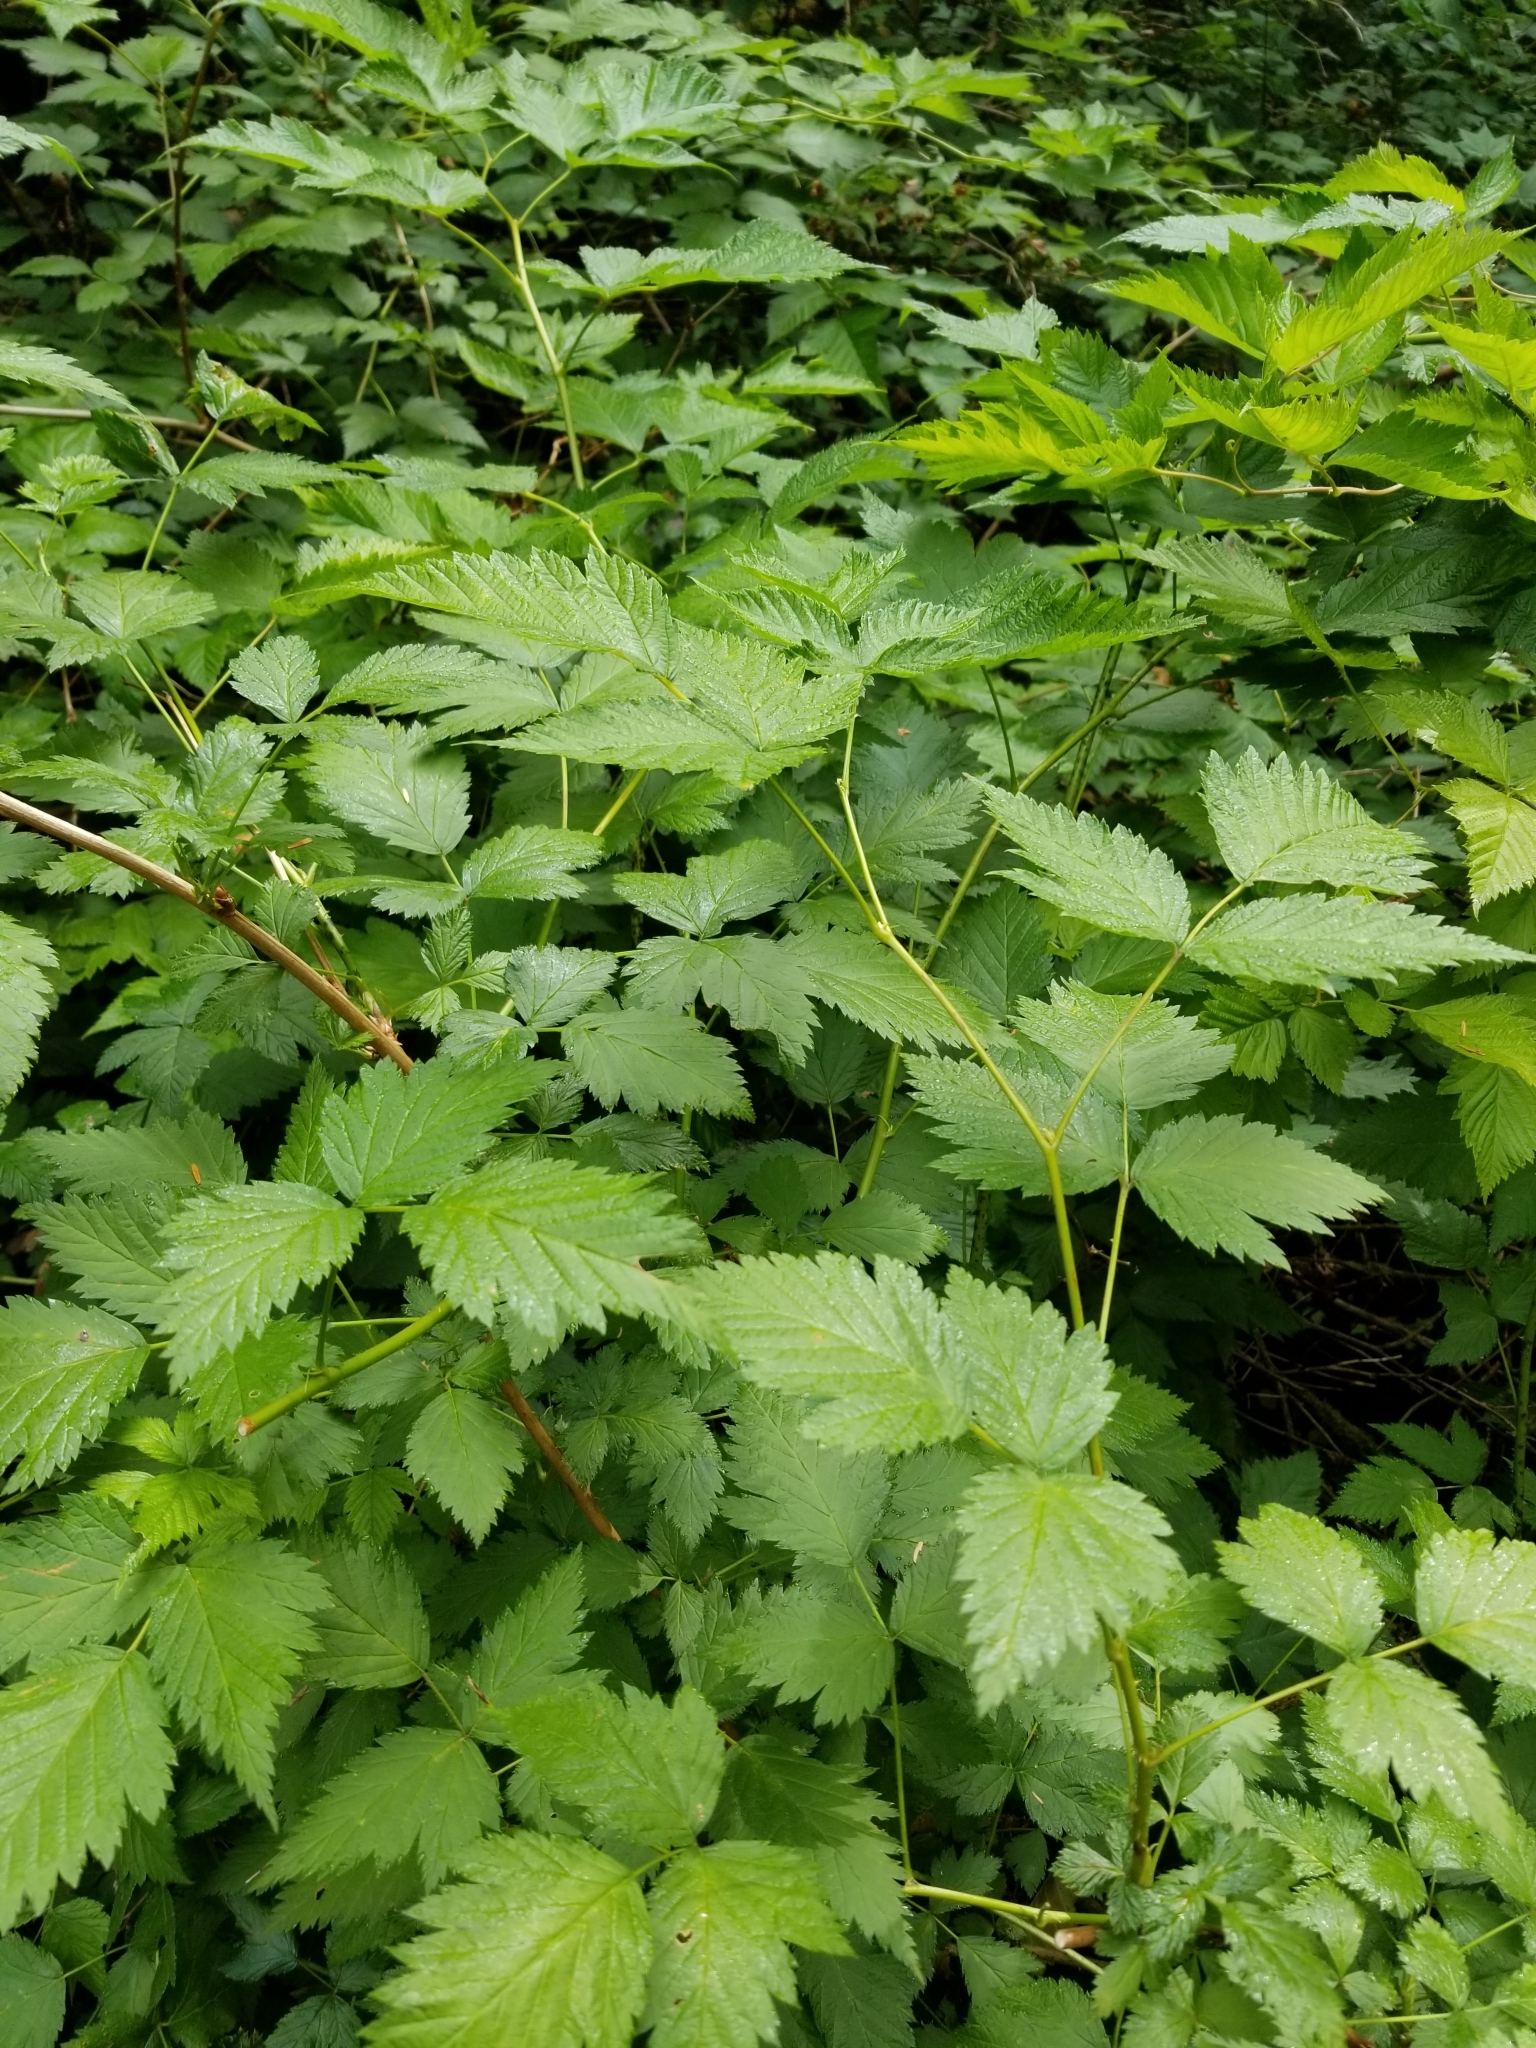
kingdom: Plantae
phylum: Tracheophyta
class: Magnoliopsida
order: Rosales
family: Rosaceae
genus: Rubus
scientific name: Rubus spectabilis
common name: Salmonberry
